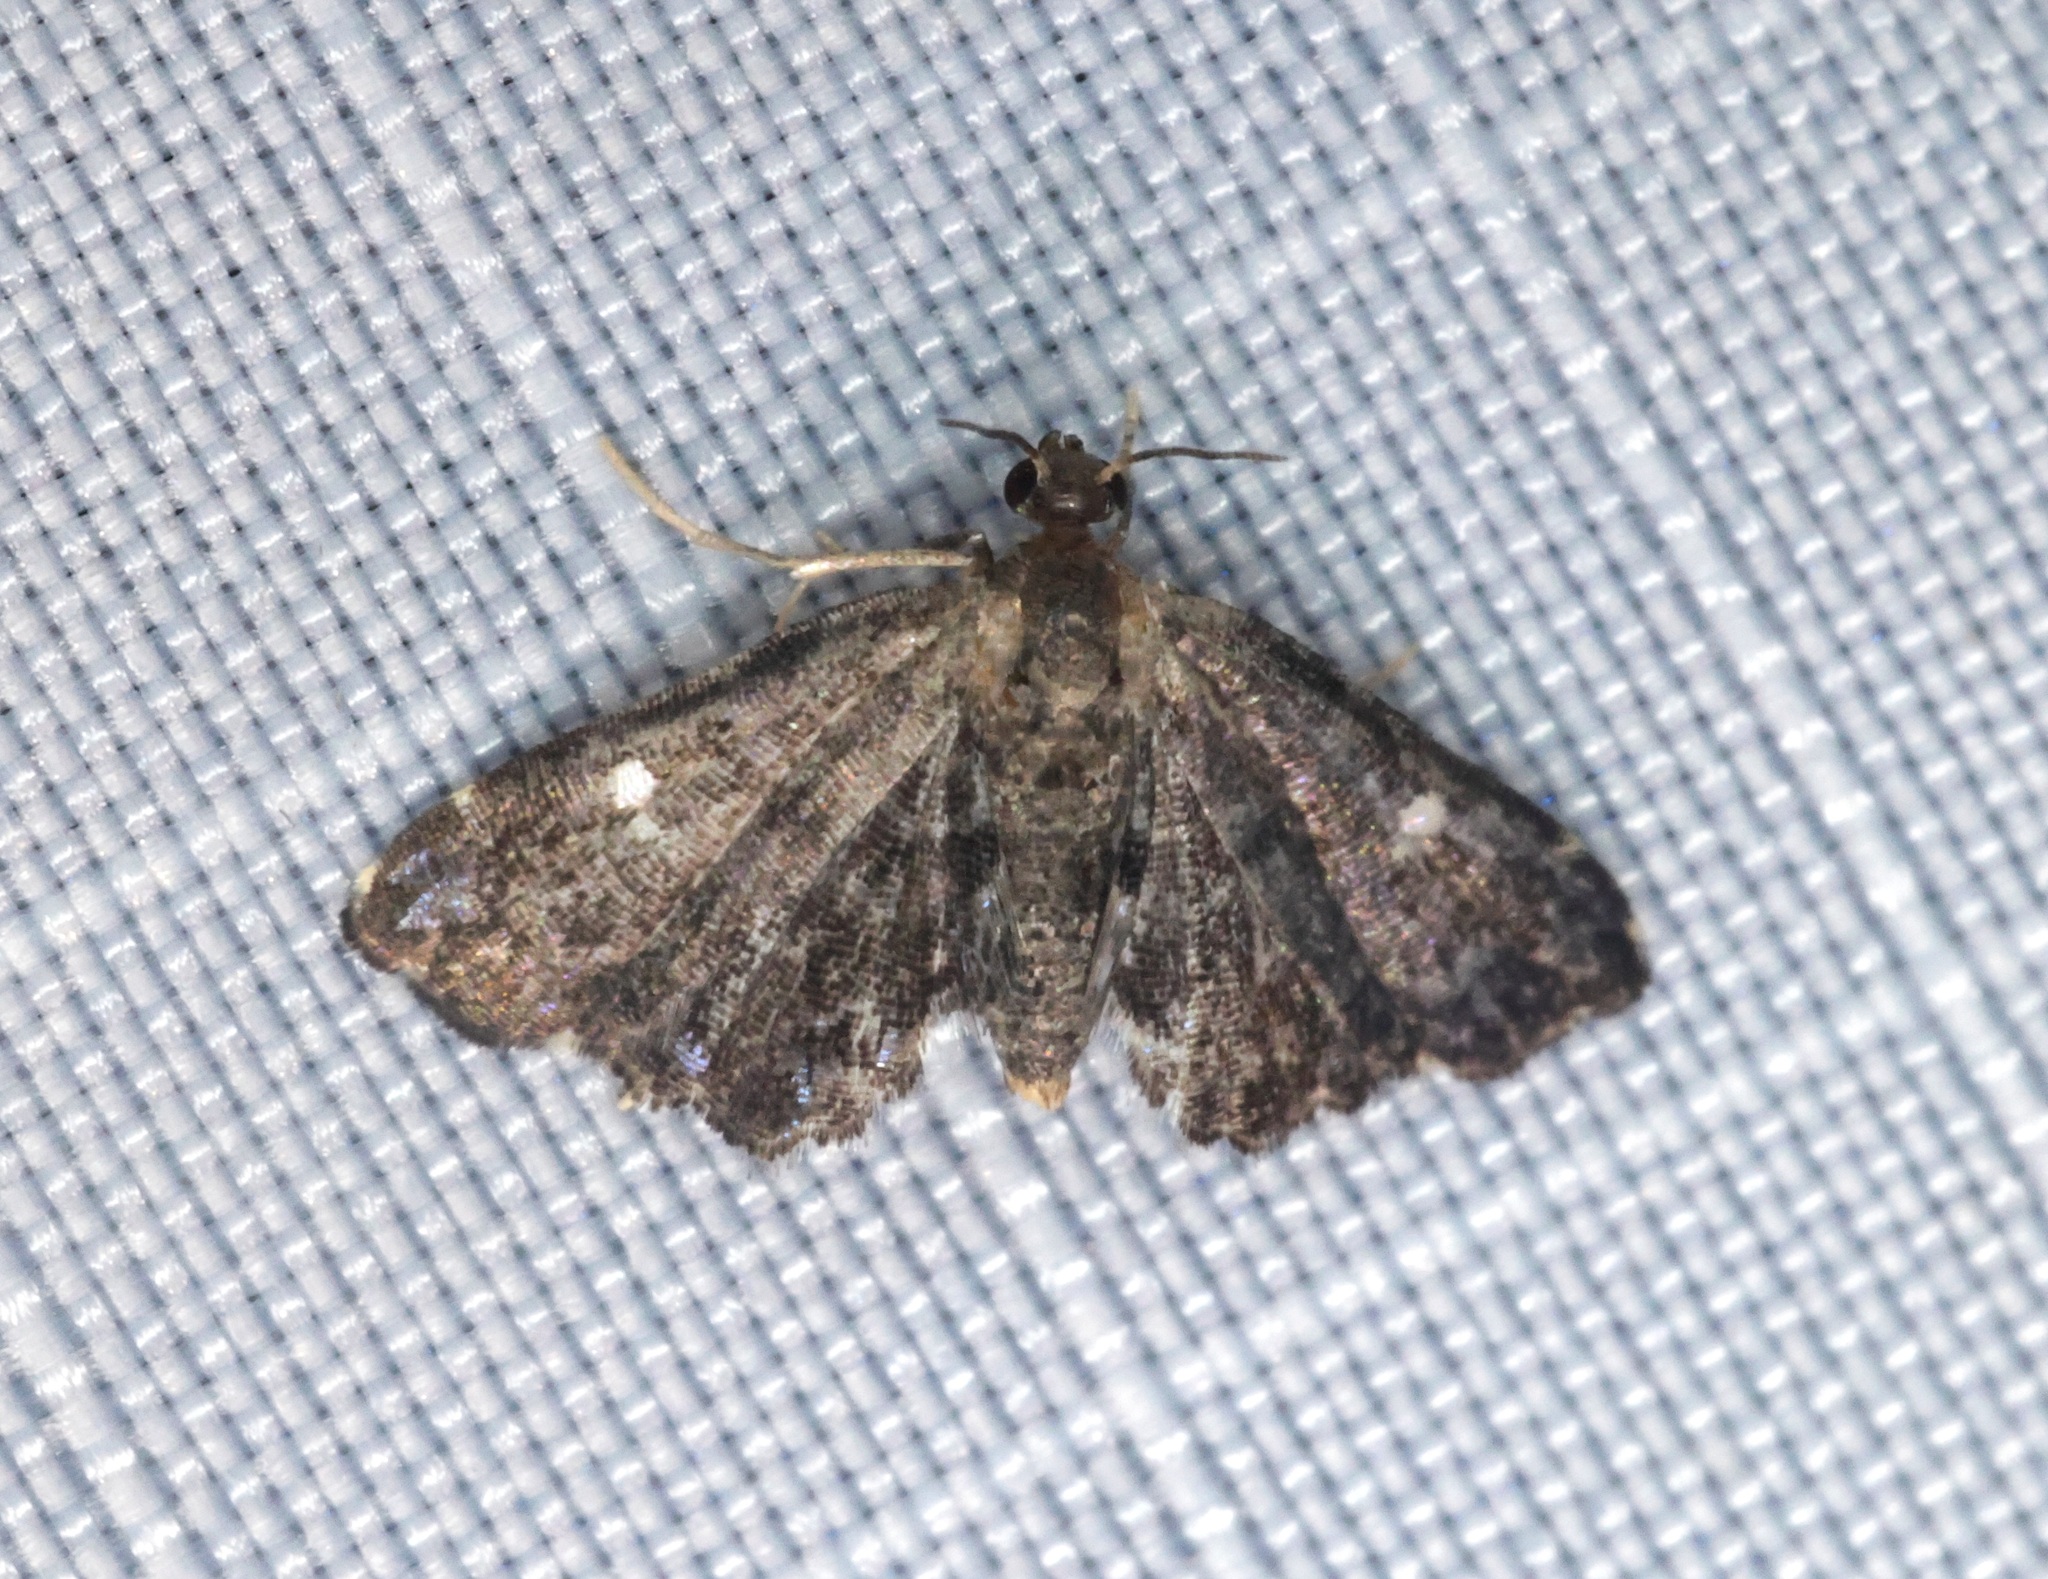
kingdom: Animalia
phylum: Arthropoda
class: Insecta
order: Lepidoptera
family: Pyralidae
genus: Drosophantis
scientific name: Drosophantis caeruleata
